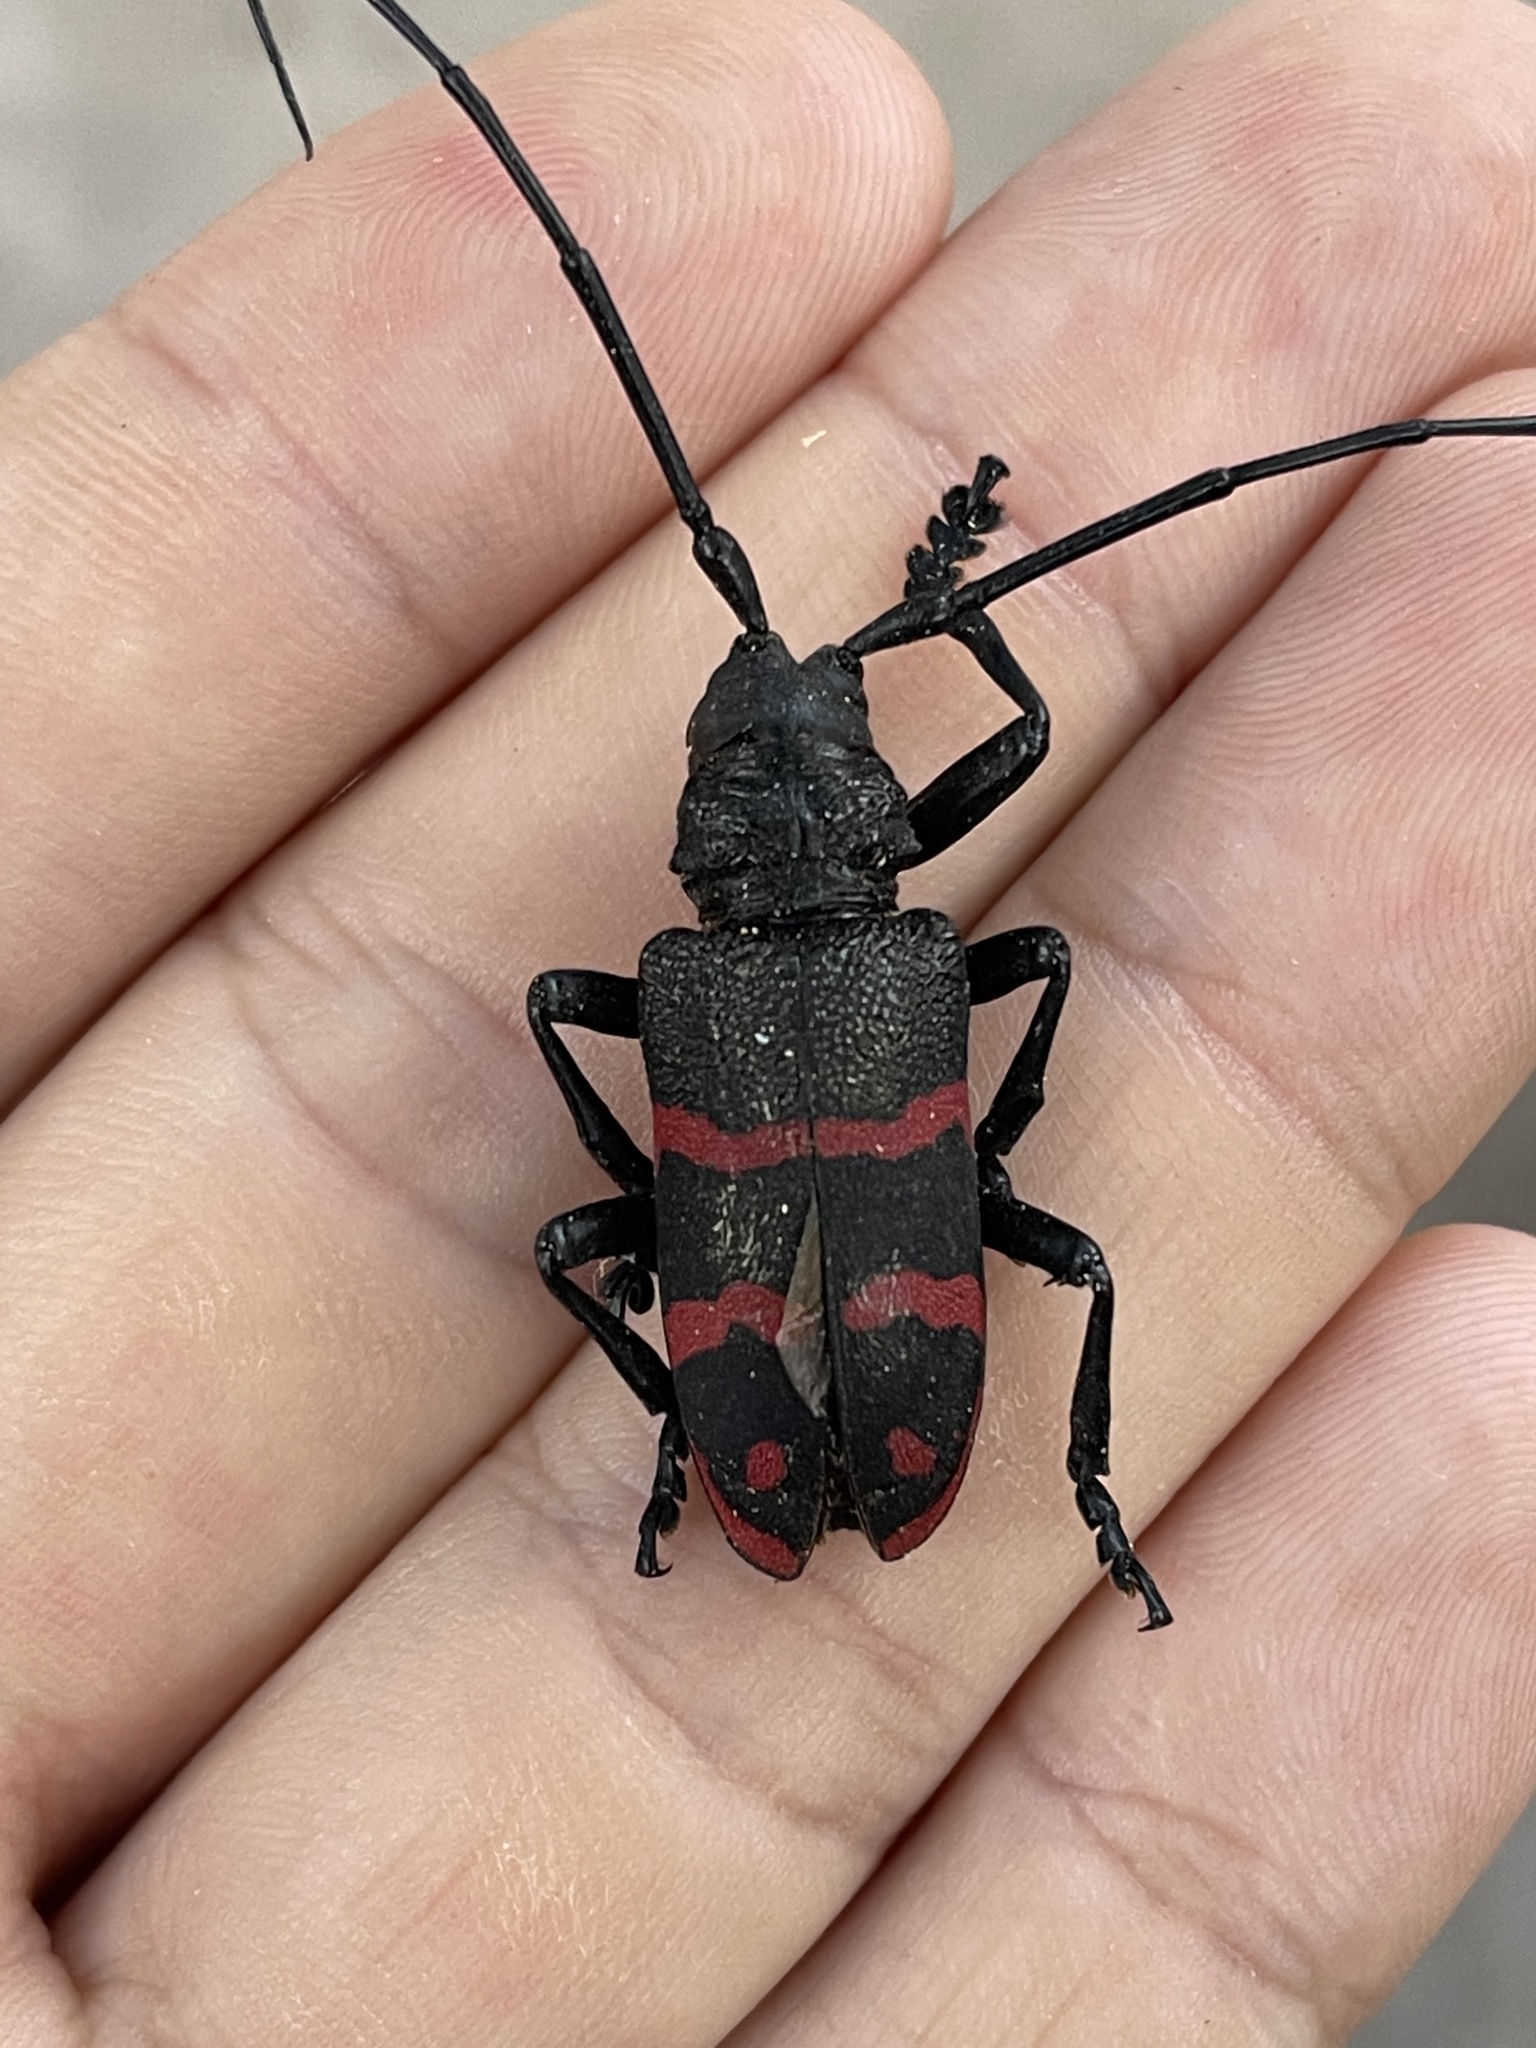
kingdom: Animalia
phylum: Arthropoda
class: Insecta
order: Coleoptera
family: Cerambycidae
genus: Ceroplesis
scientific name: Ceroplesis militaris
